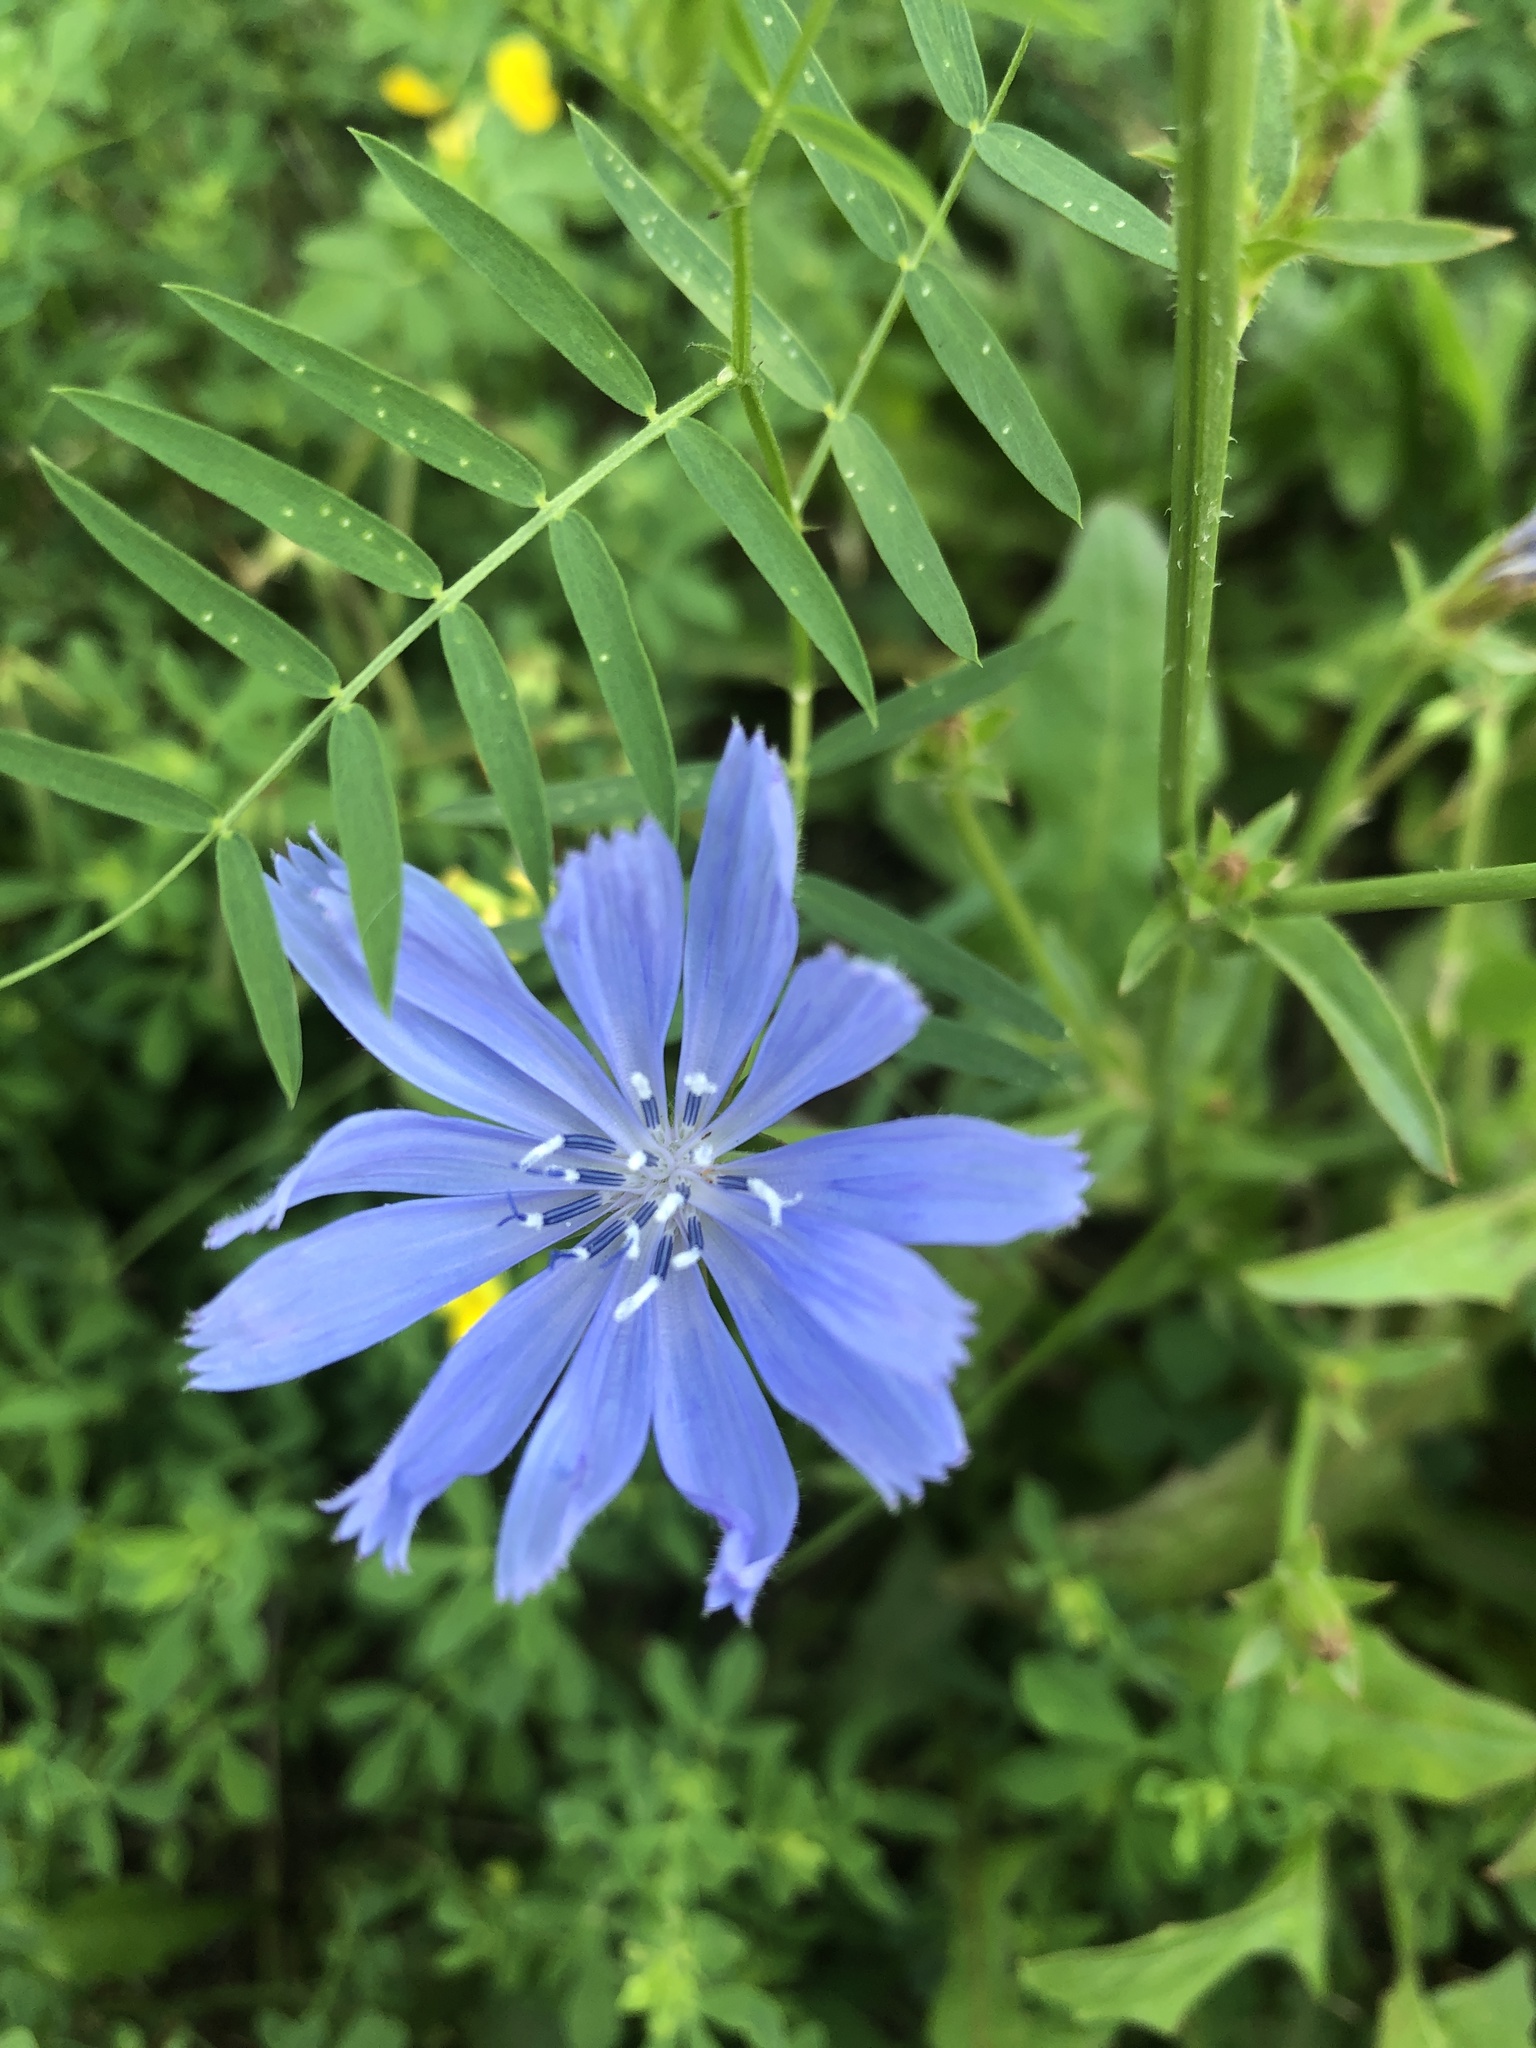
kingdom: Plantae
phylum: Tracheophyta
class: Magnoliopsida
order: Asterales
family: Asteraceae
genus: Cichorium
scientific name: Cichorium intybus
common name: Chicory
